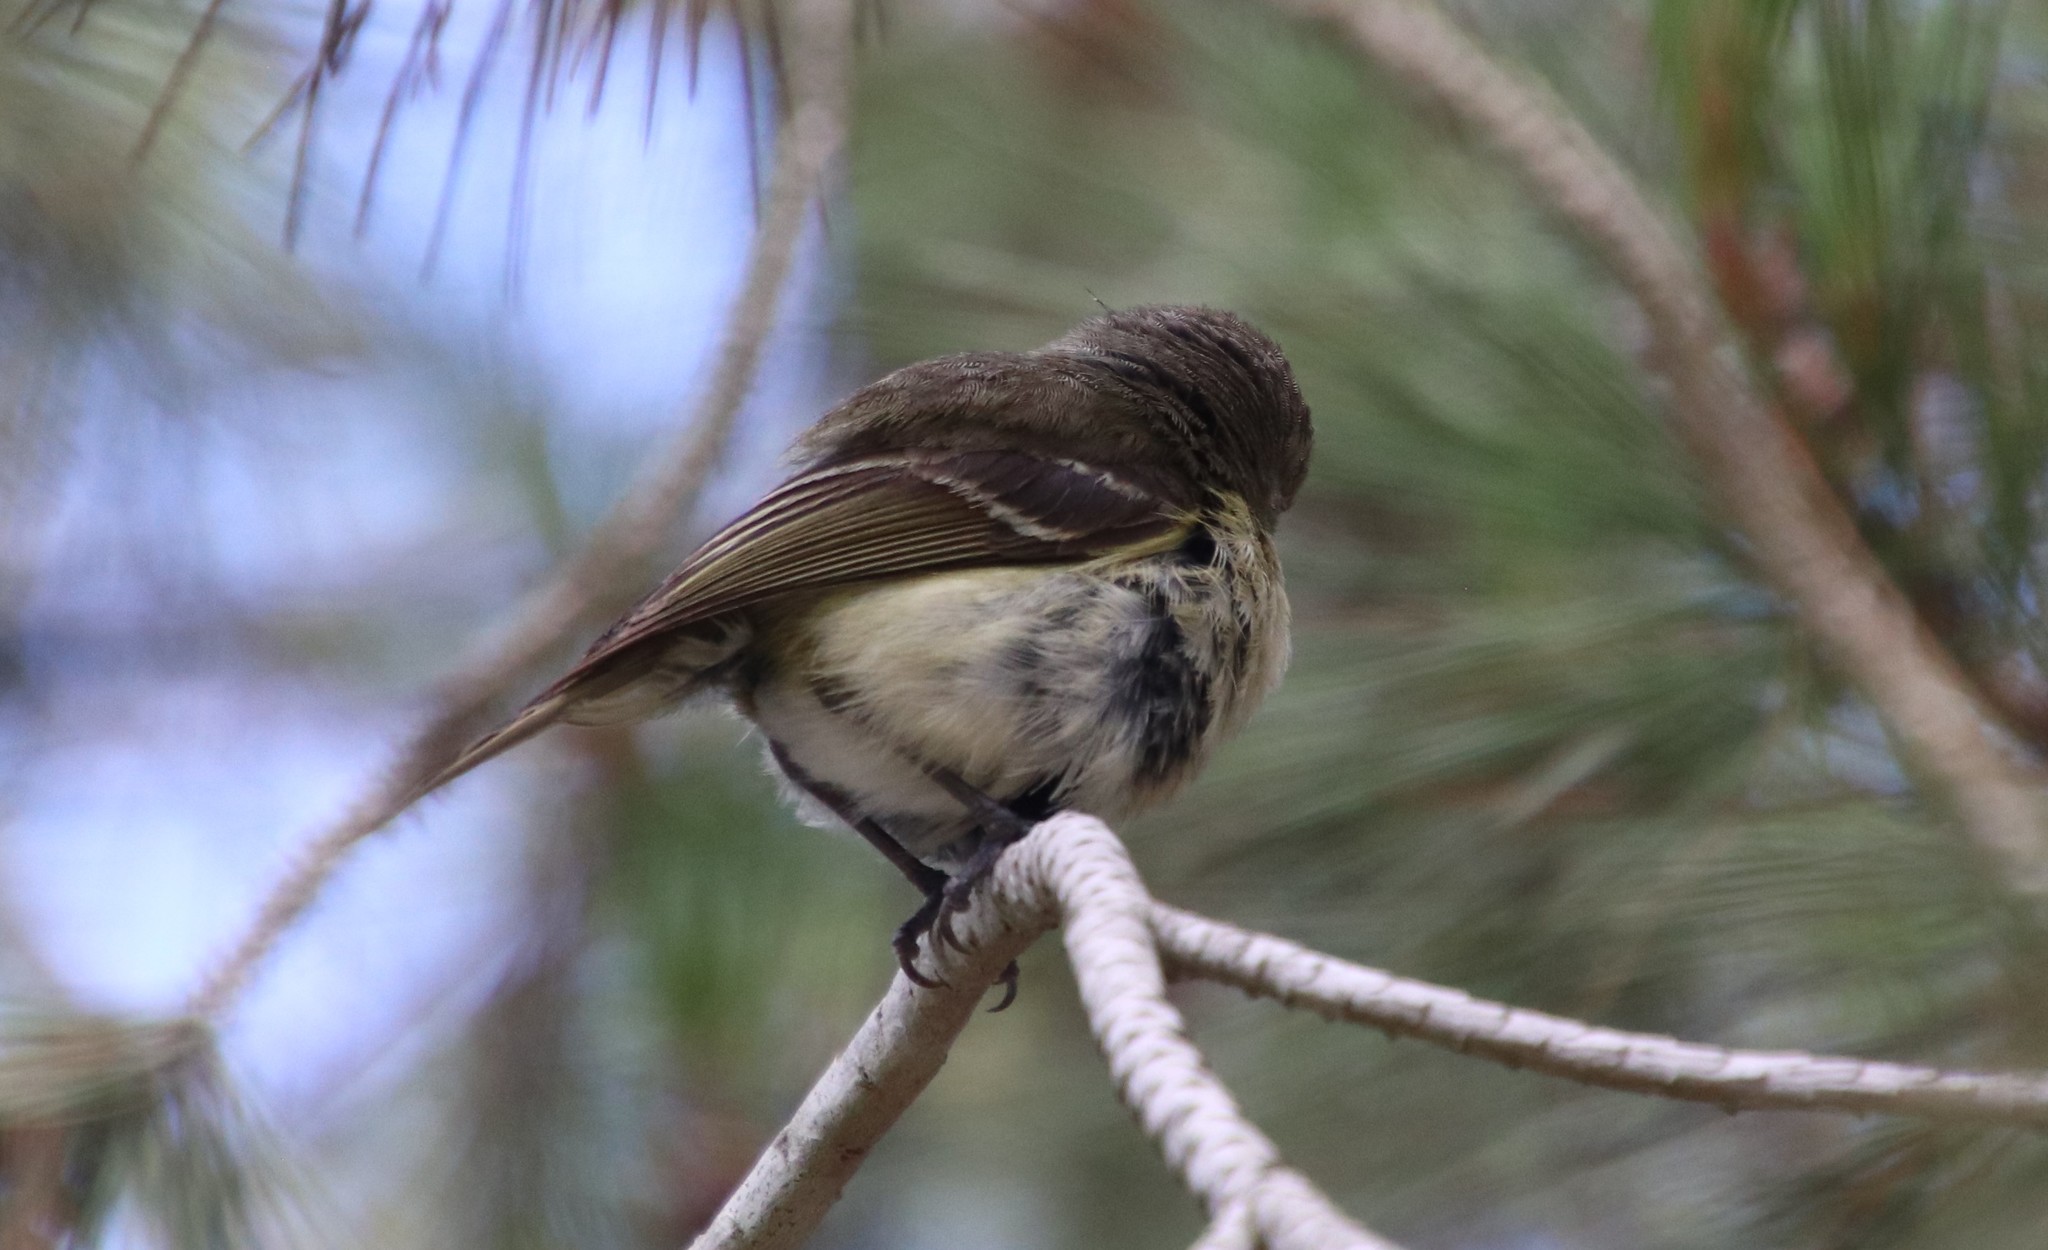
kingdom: Animalia
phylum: Chordata
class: Aves
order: Passeriformes
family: Vireonidae
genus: Vireo
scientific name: Vireo huttoni
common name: Hutton's vireo
